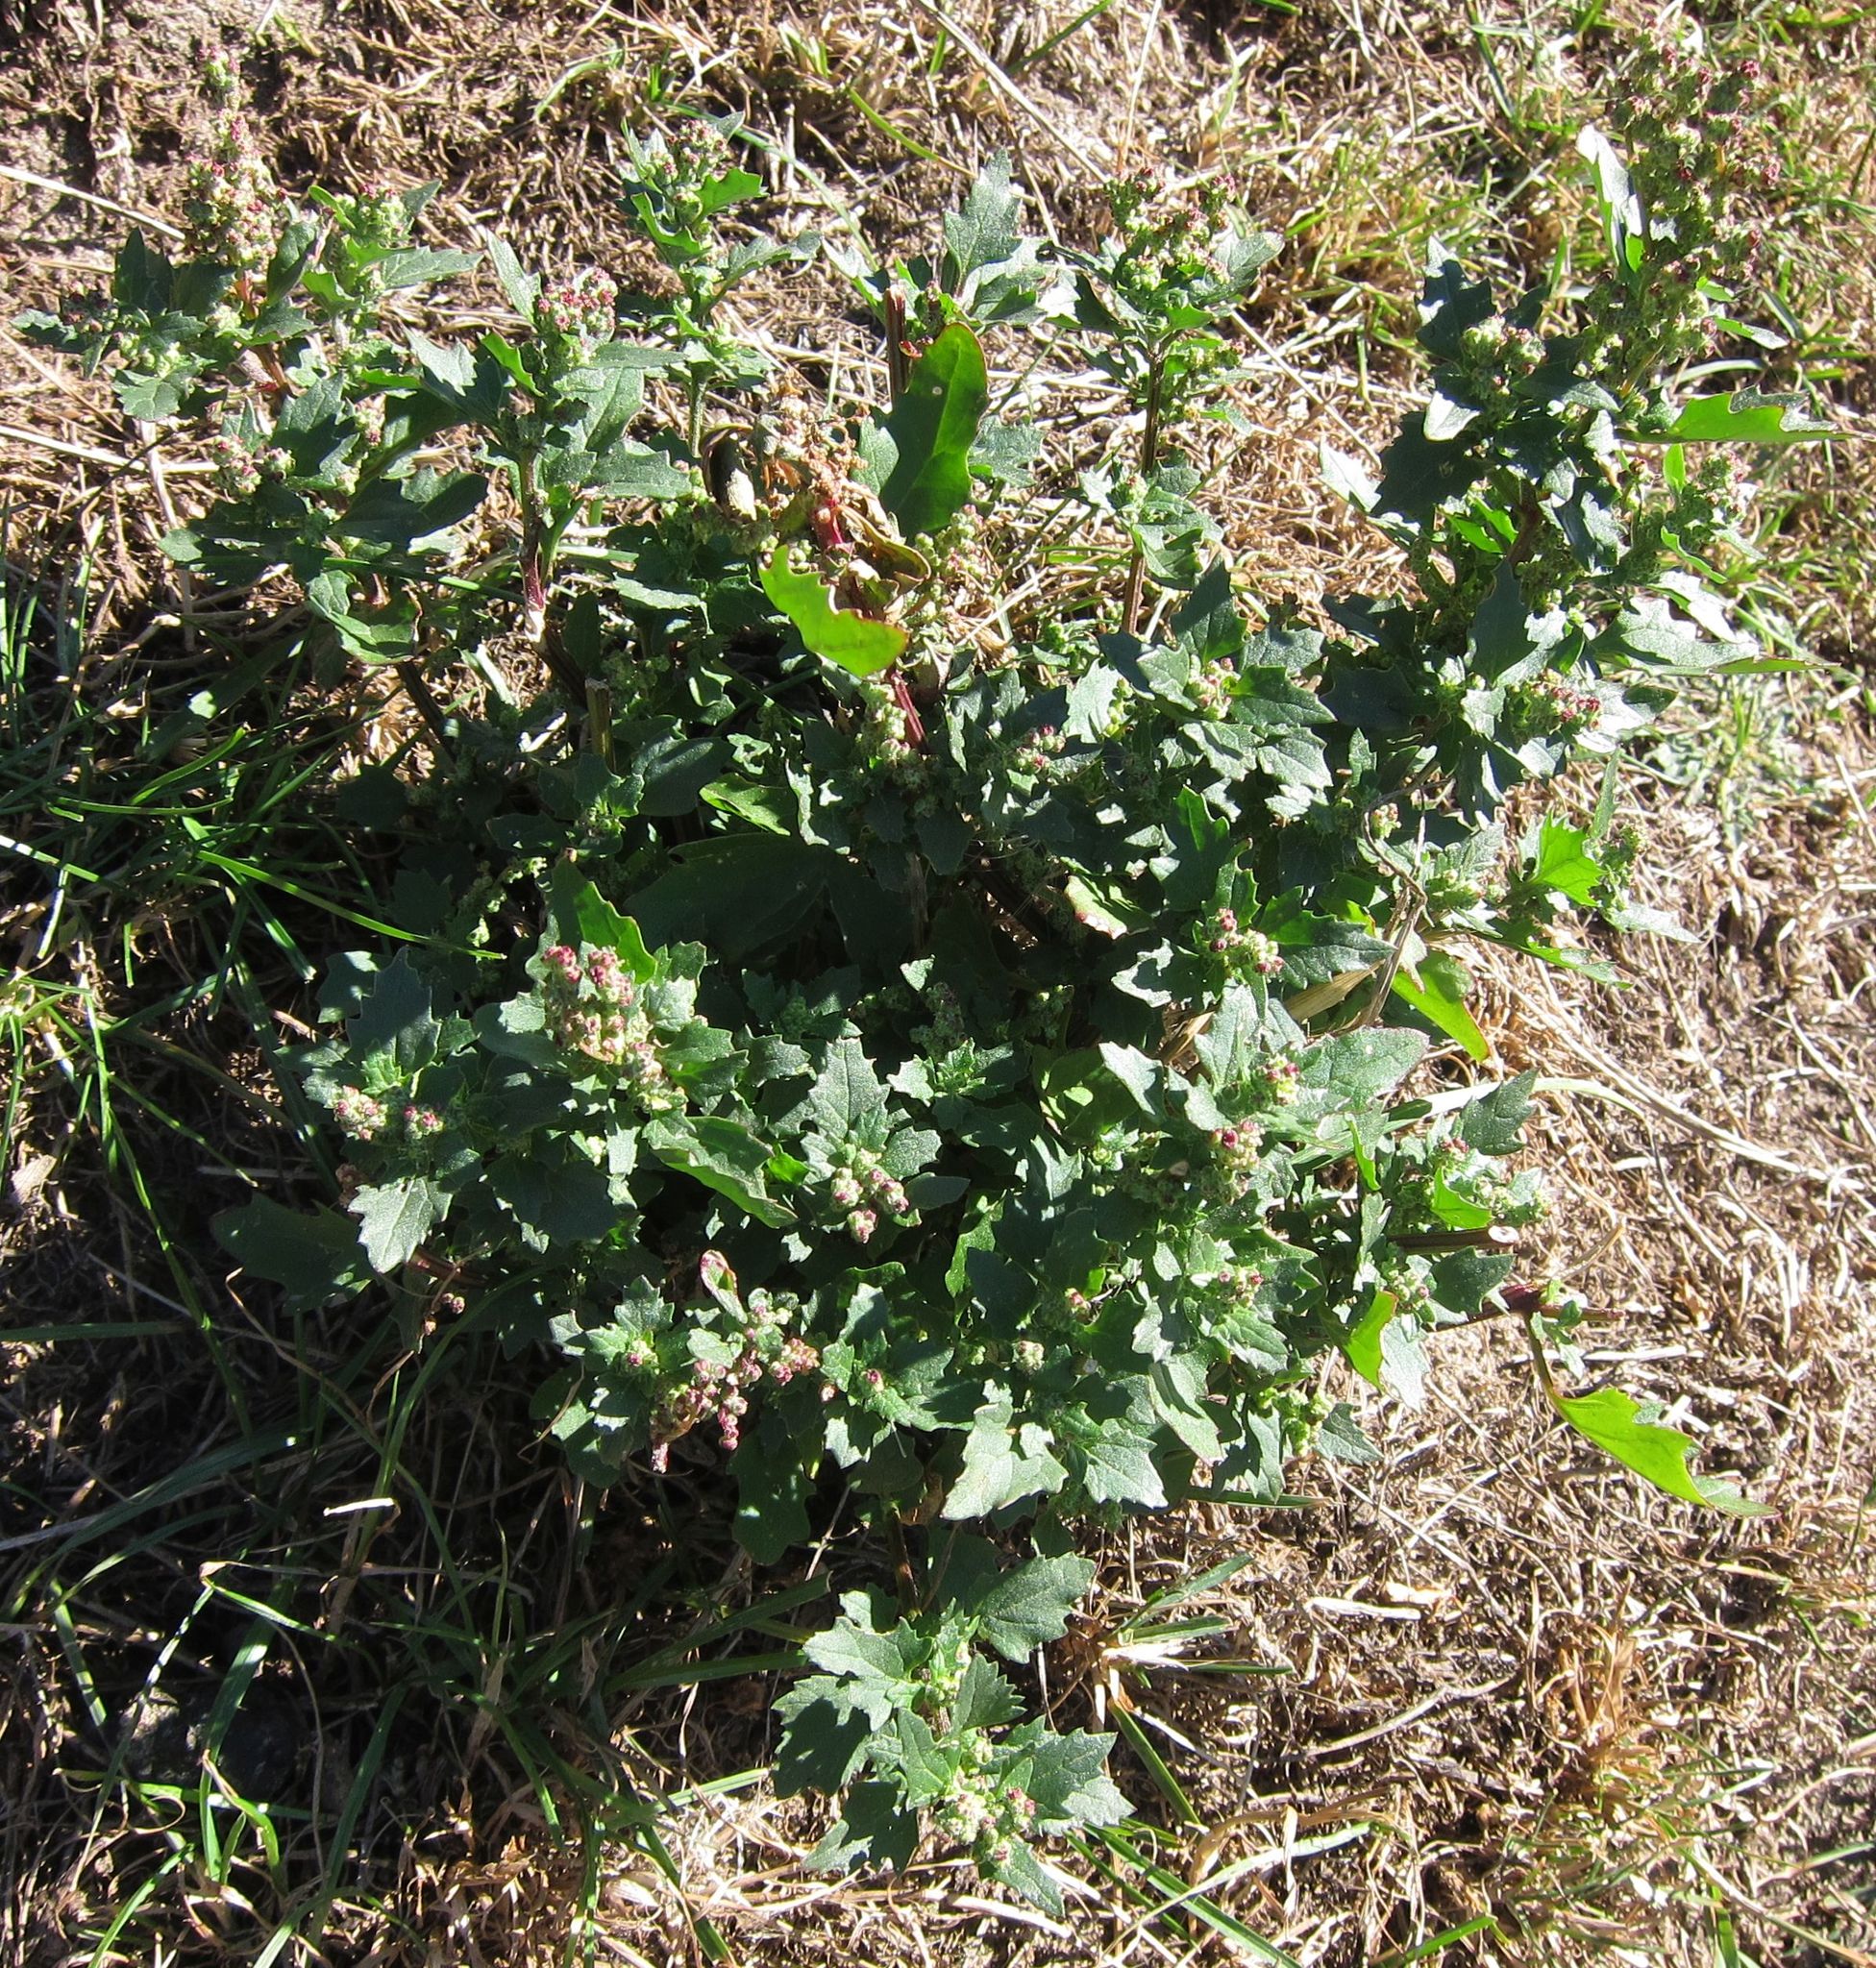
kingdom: Plantae
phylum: Tracheophyta
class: Magnoliopsida
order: Caryophyllales
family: Amaranthaceae
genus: Chenopodiastrum
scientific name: Chenopodiastrum murale
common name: Sowbane
